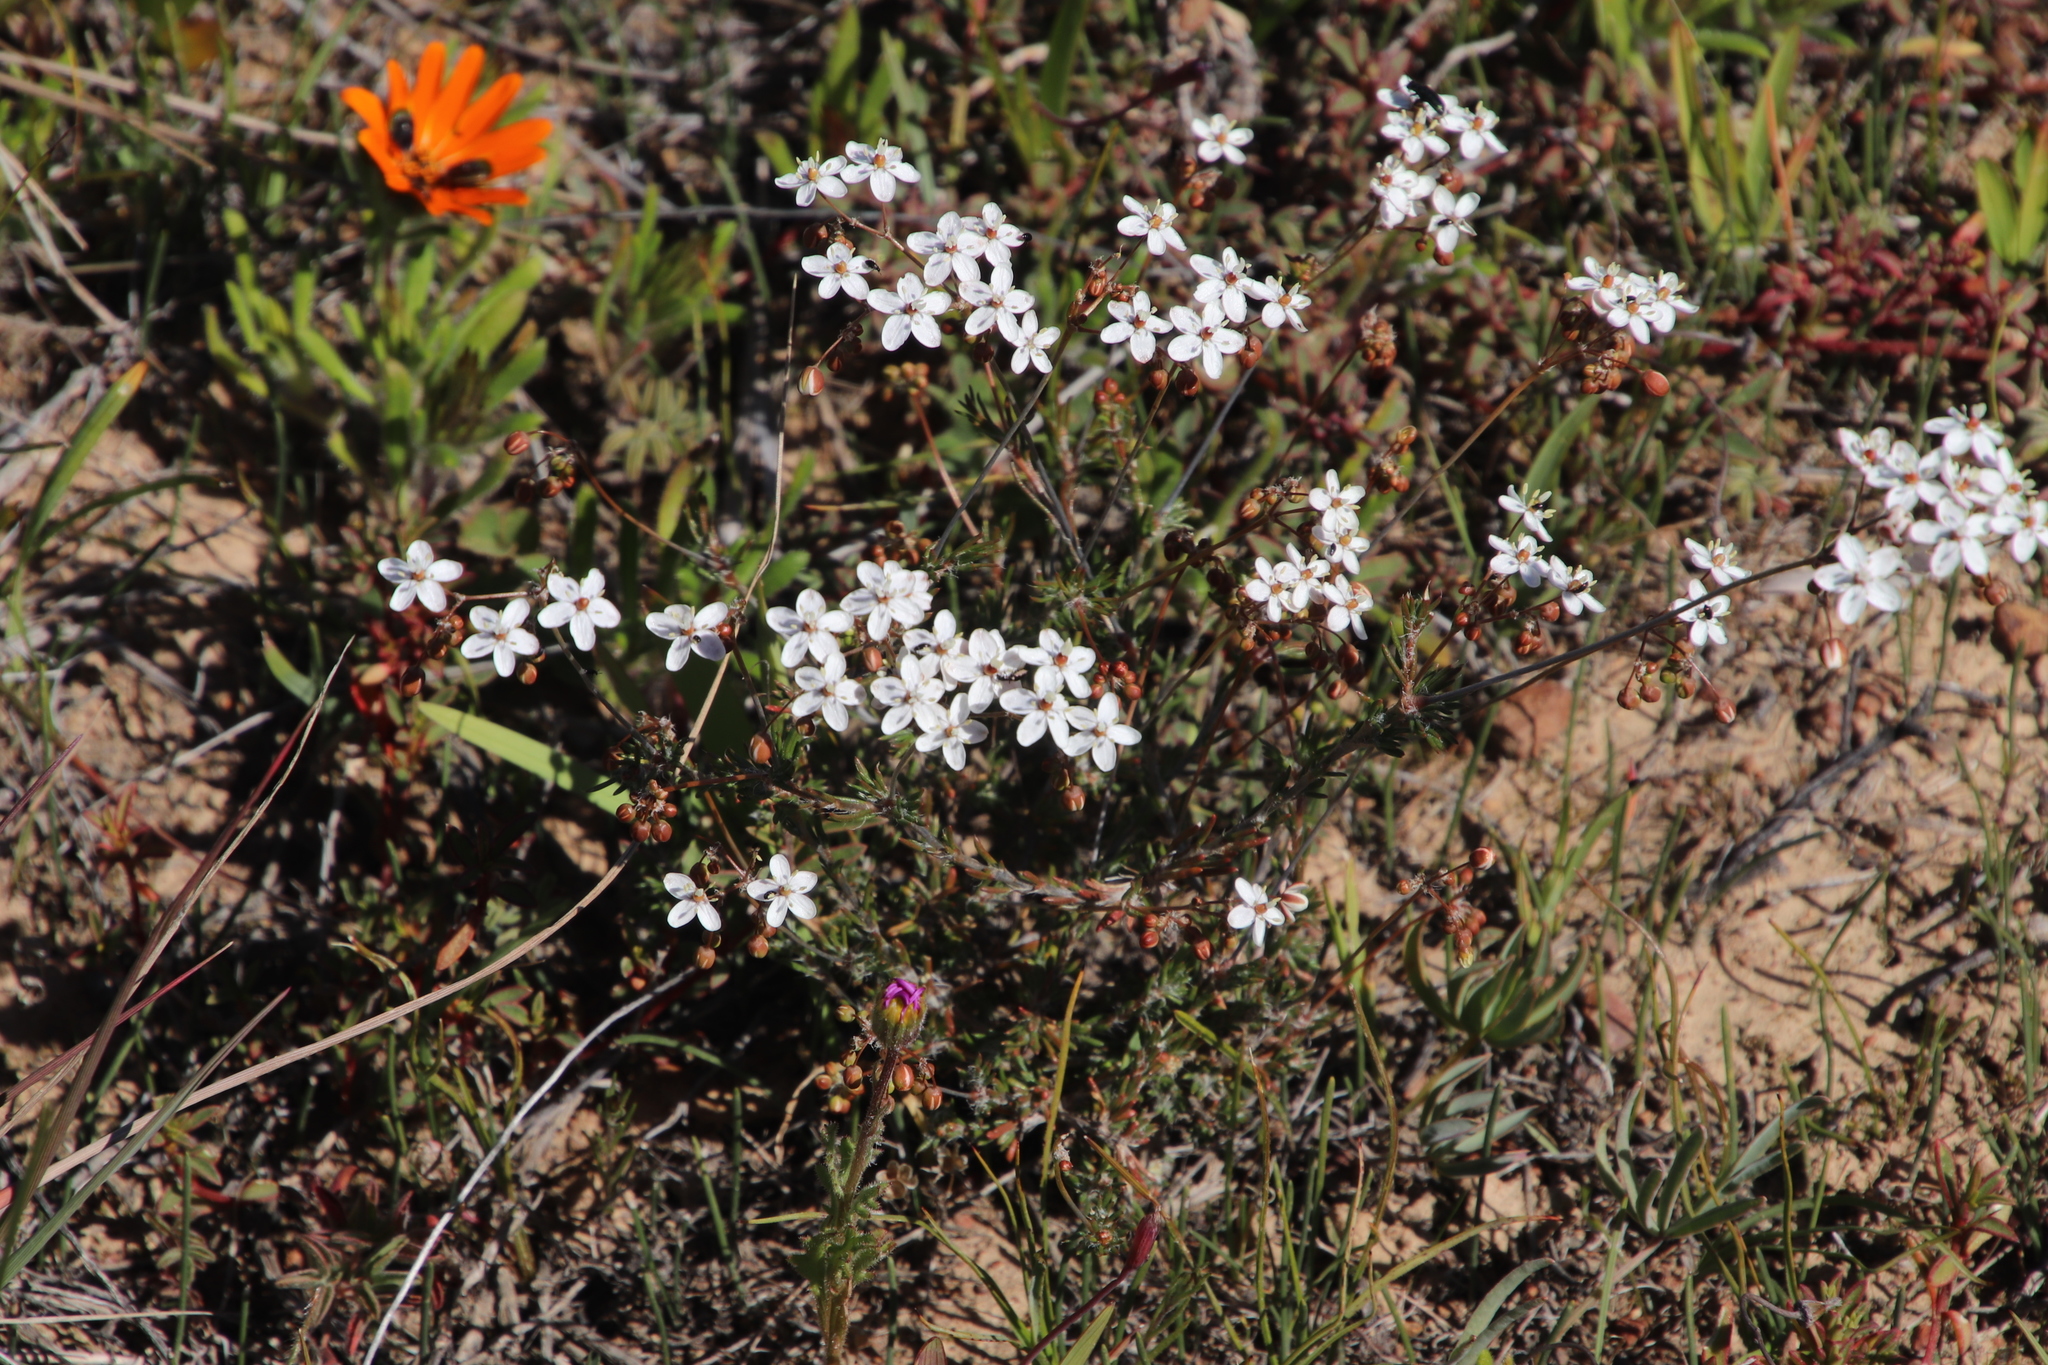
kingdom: Plantae
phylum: Tracheophyta
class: Magnoliopsida
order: Caryophyllales
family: Molluginaceae
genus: Pharnaceum
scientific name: Pharnaceum aurantium
